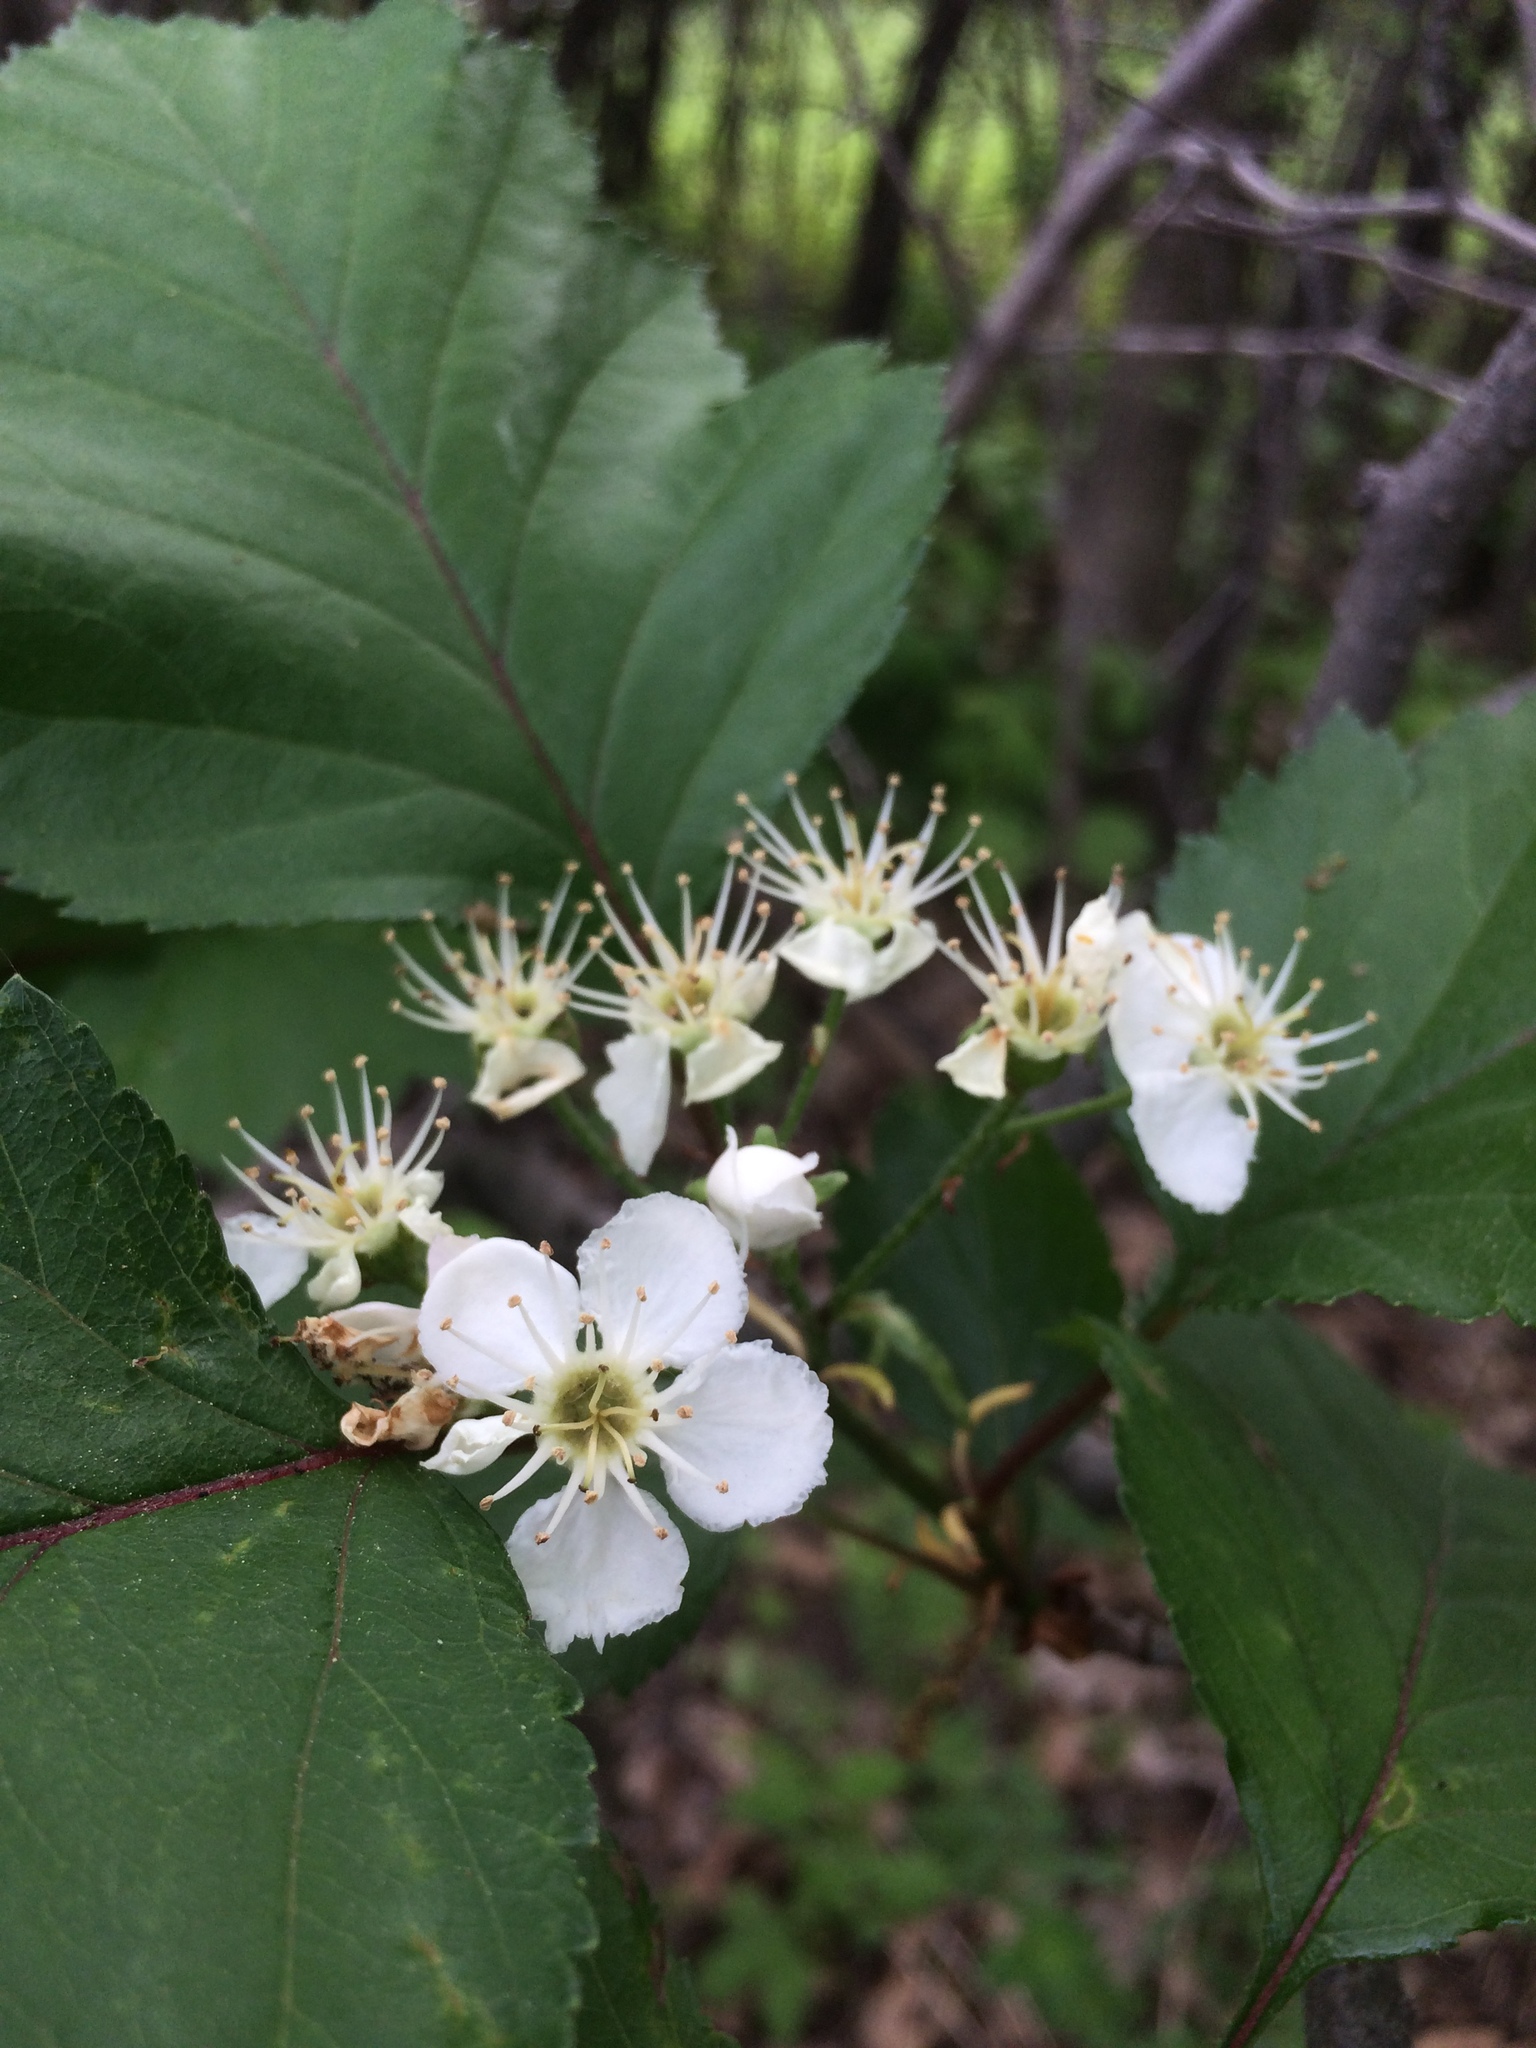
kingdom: Plantae
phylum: Tracheophyta
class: Magnoliopsida
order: Rosales
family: Rosaceae
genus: Crataegus
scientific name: Crataegus irrasa
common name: Unshorn hawthorn
